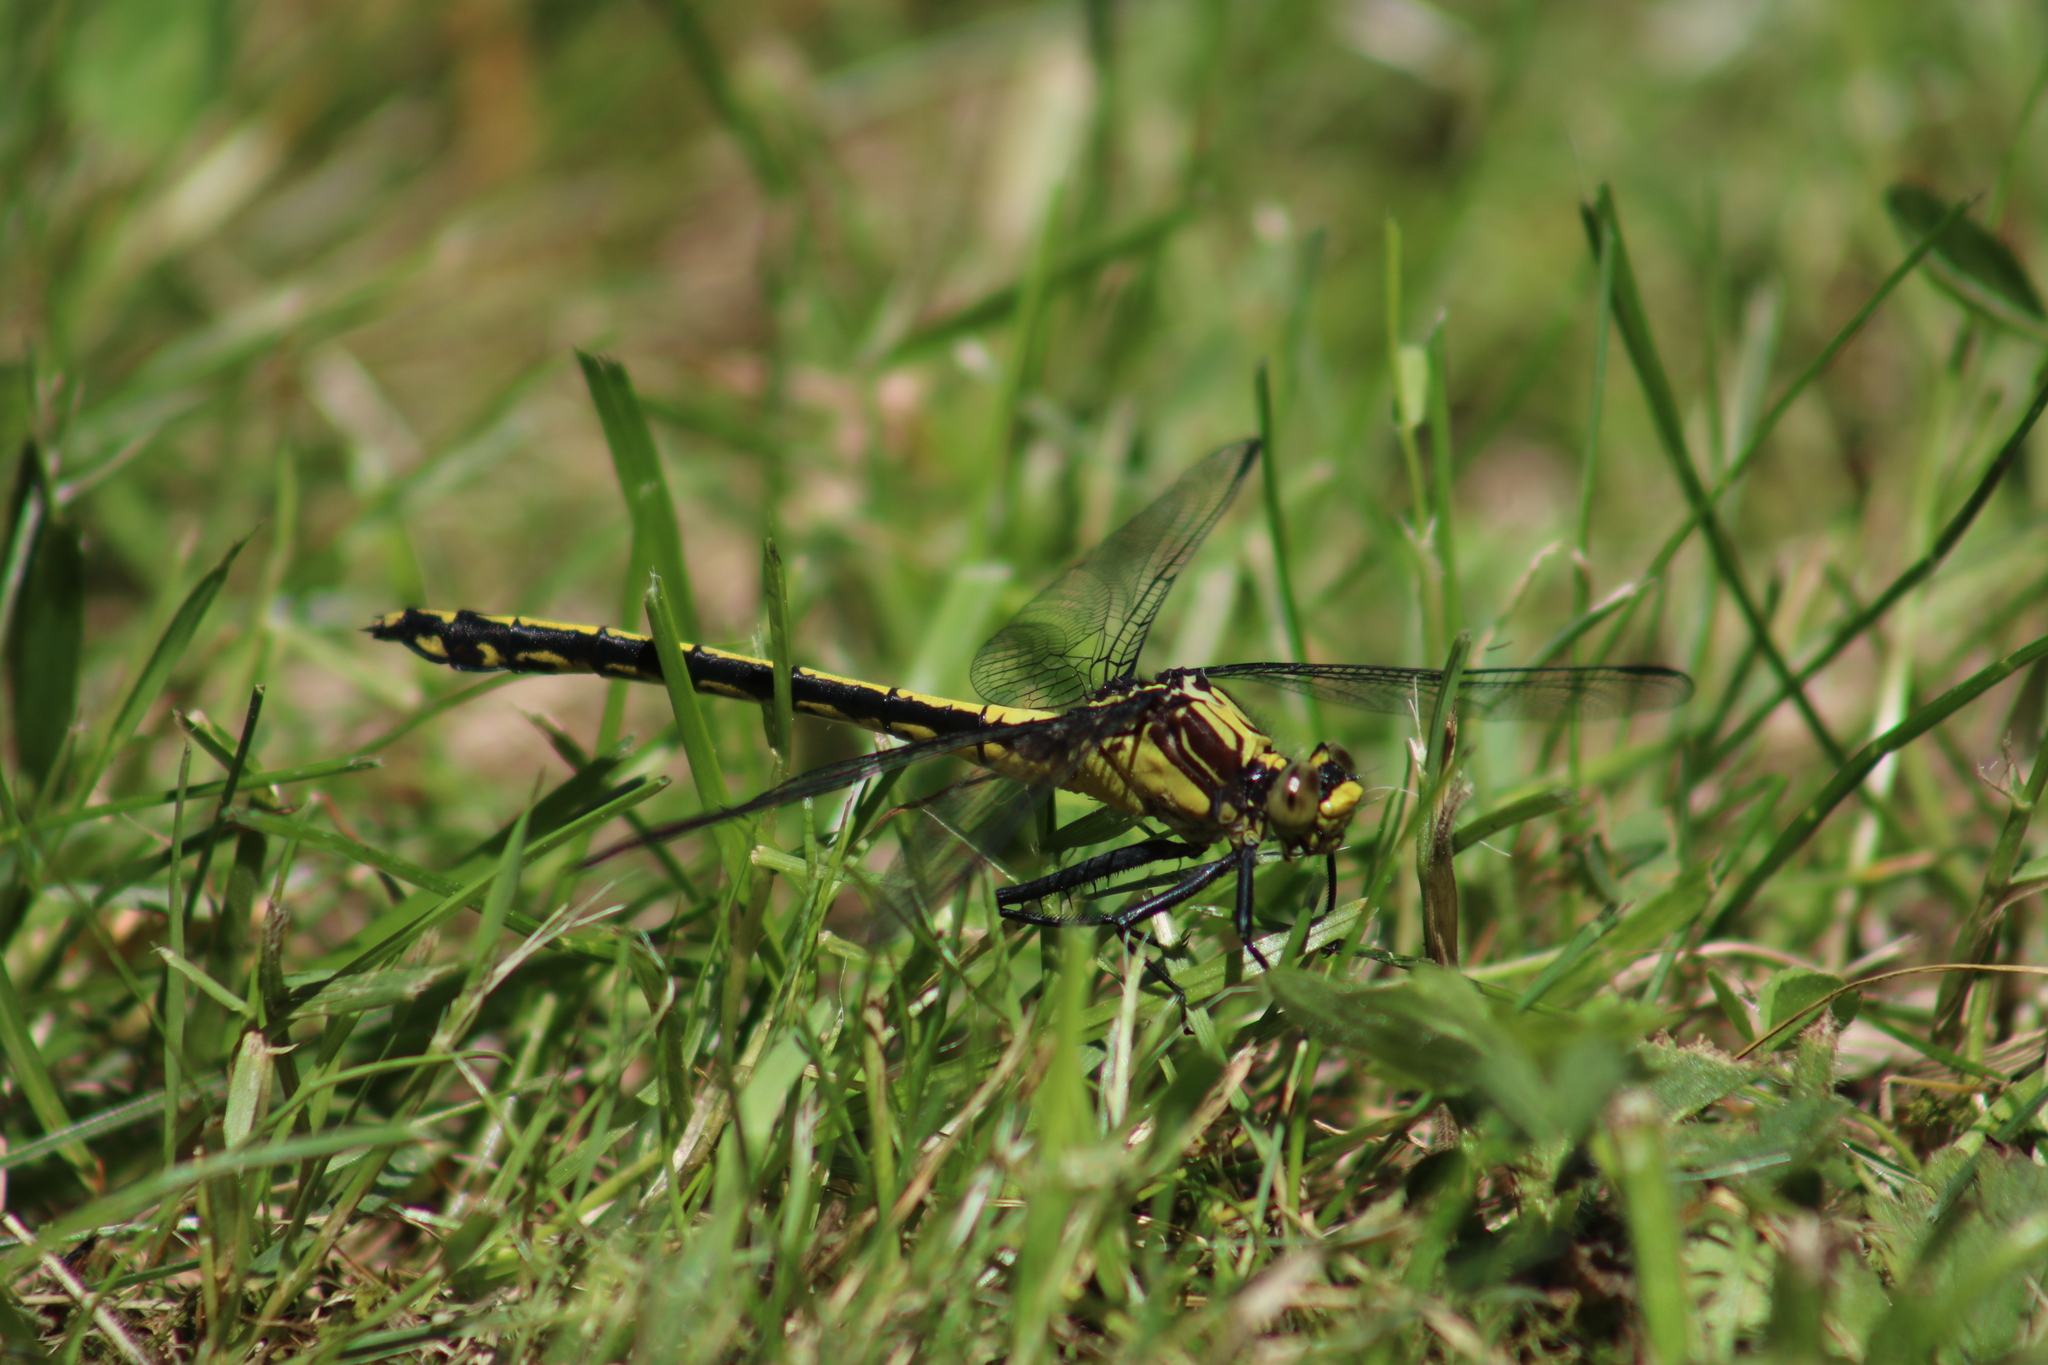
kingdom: Animalia
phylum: Arthropoda
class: Insecta
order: Odonata
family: Gomphidae
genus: Dromogomphus
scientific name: Dromogomphus spinosus
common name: Black-shouldered spinyleg
